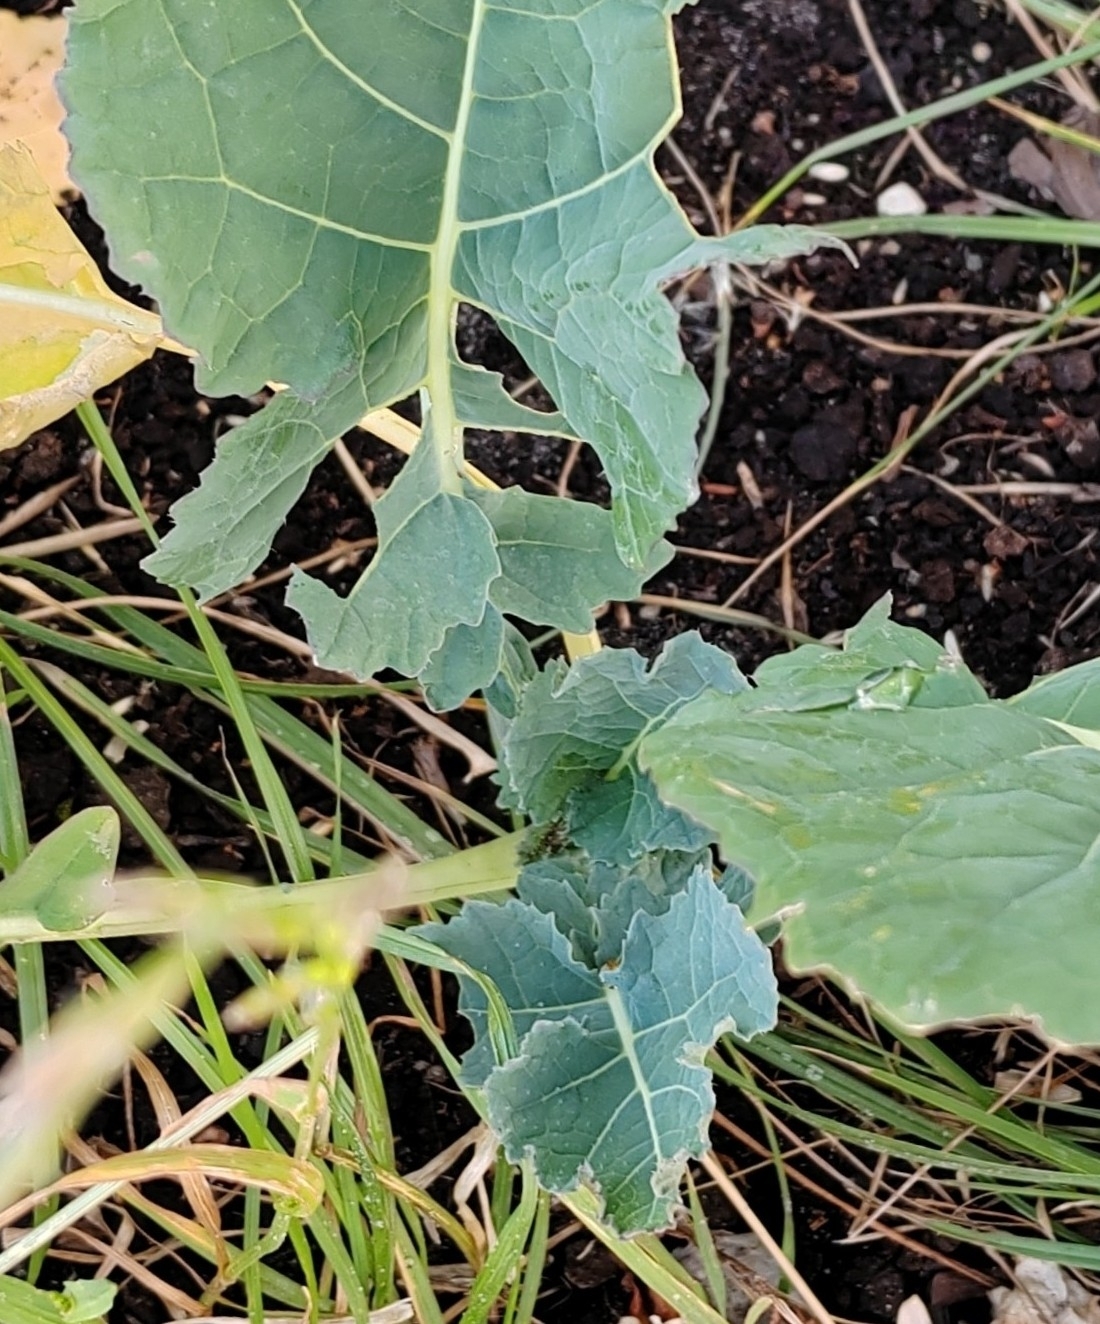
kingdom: Plantae
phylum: Tracheophyta
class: Magnoliopsida
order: Brassicales
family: Brassicaceae
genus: Brassica
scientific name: Brassica napus
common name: Rape
